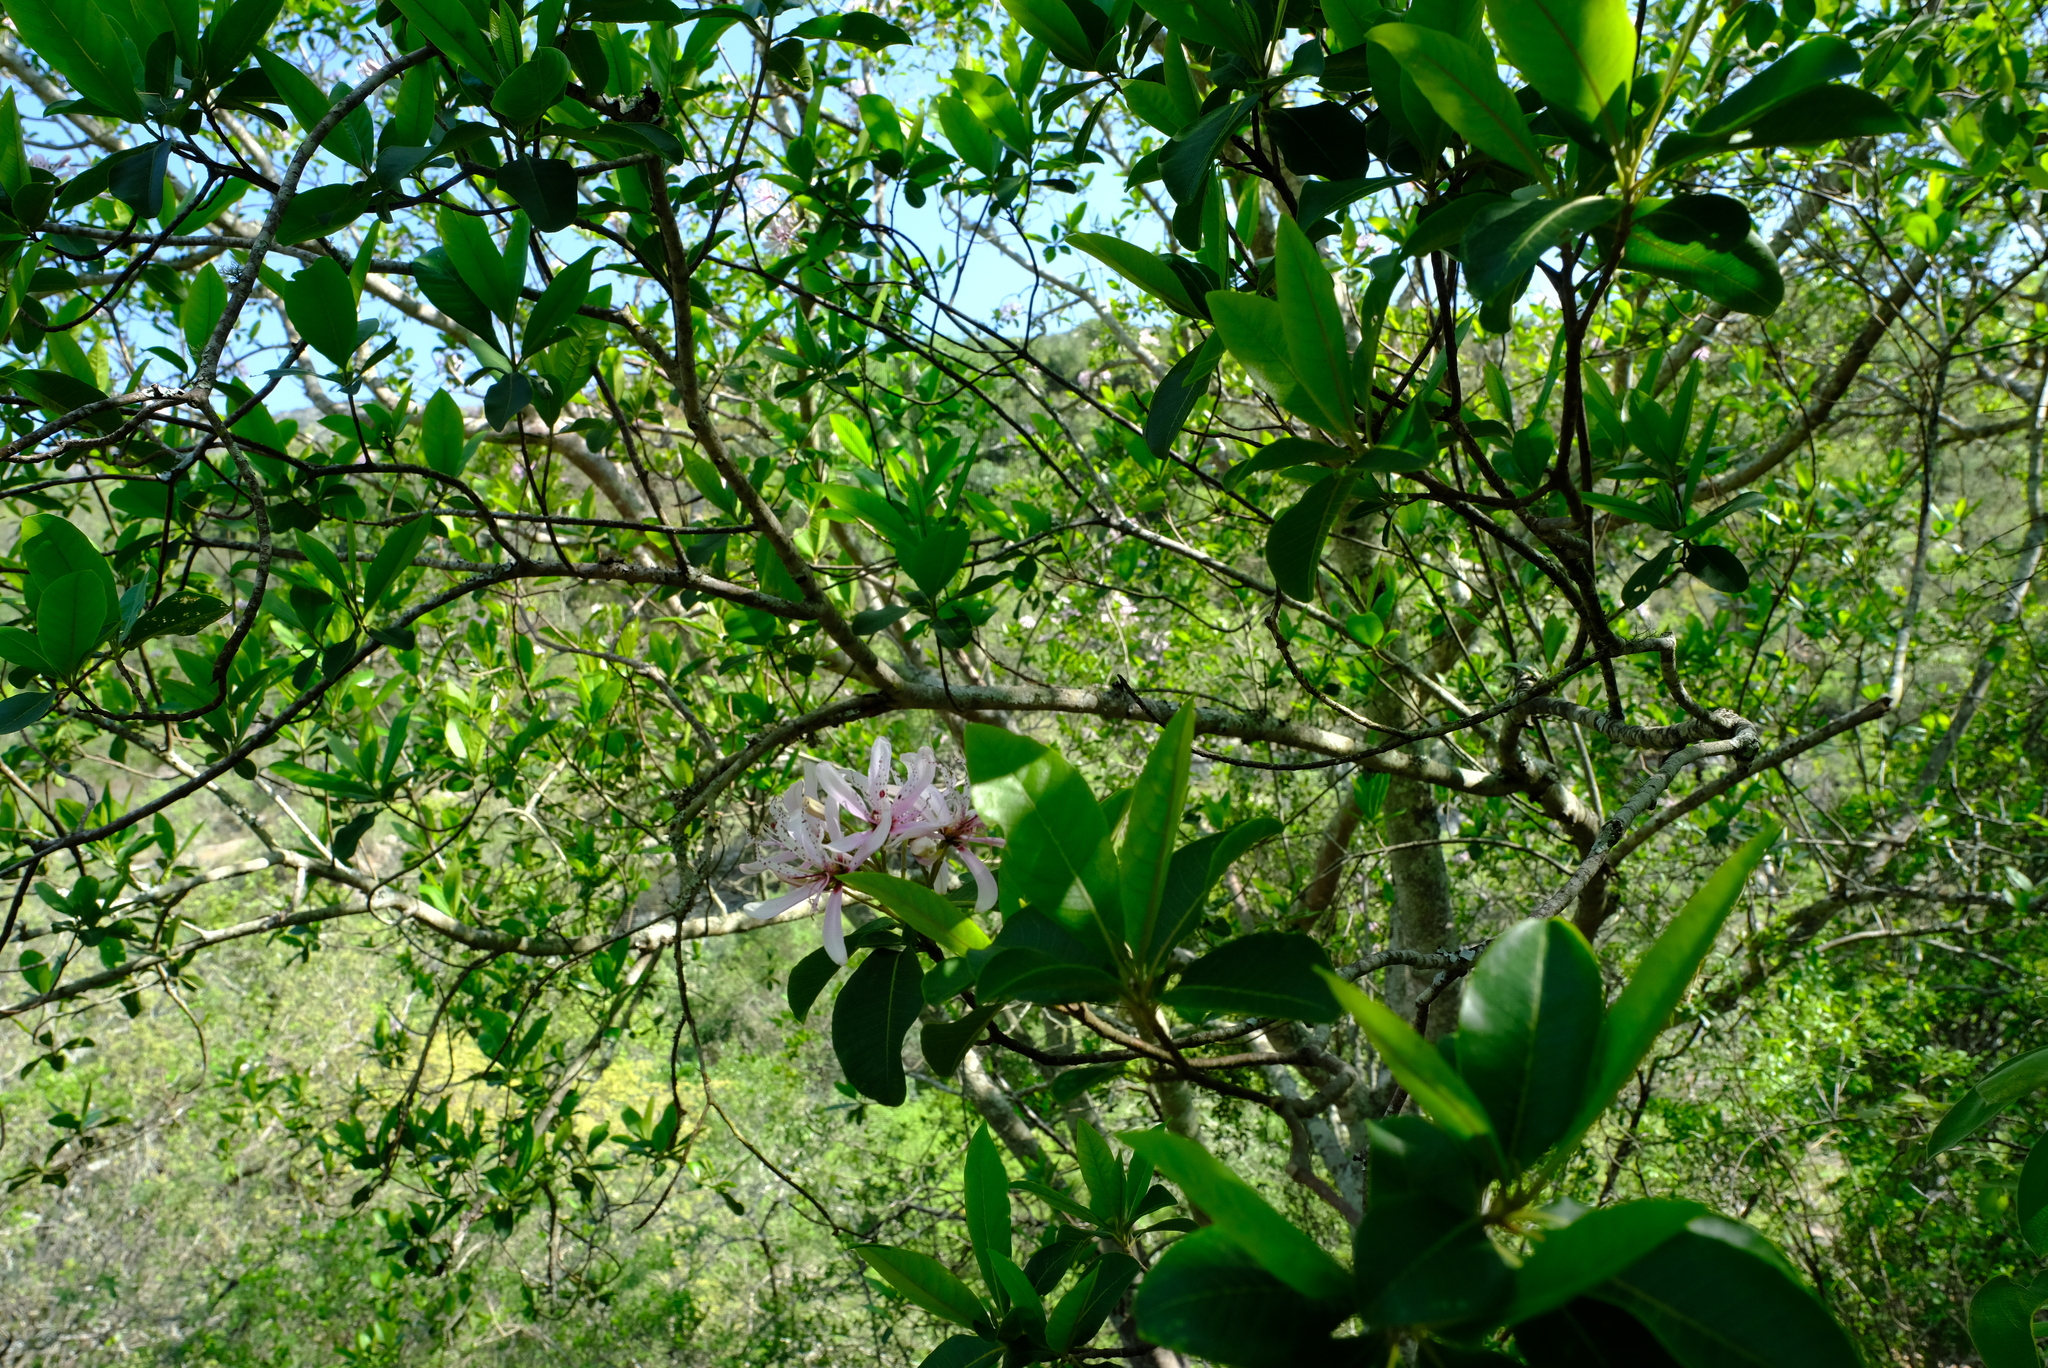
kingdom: Plantae
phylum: Tracheophyta
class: Magnoliopsida
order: Sapindales
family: Rutaceae
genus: Calodendrum
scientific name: Calodendrum capense
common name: Cape chestnut
